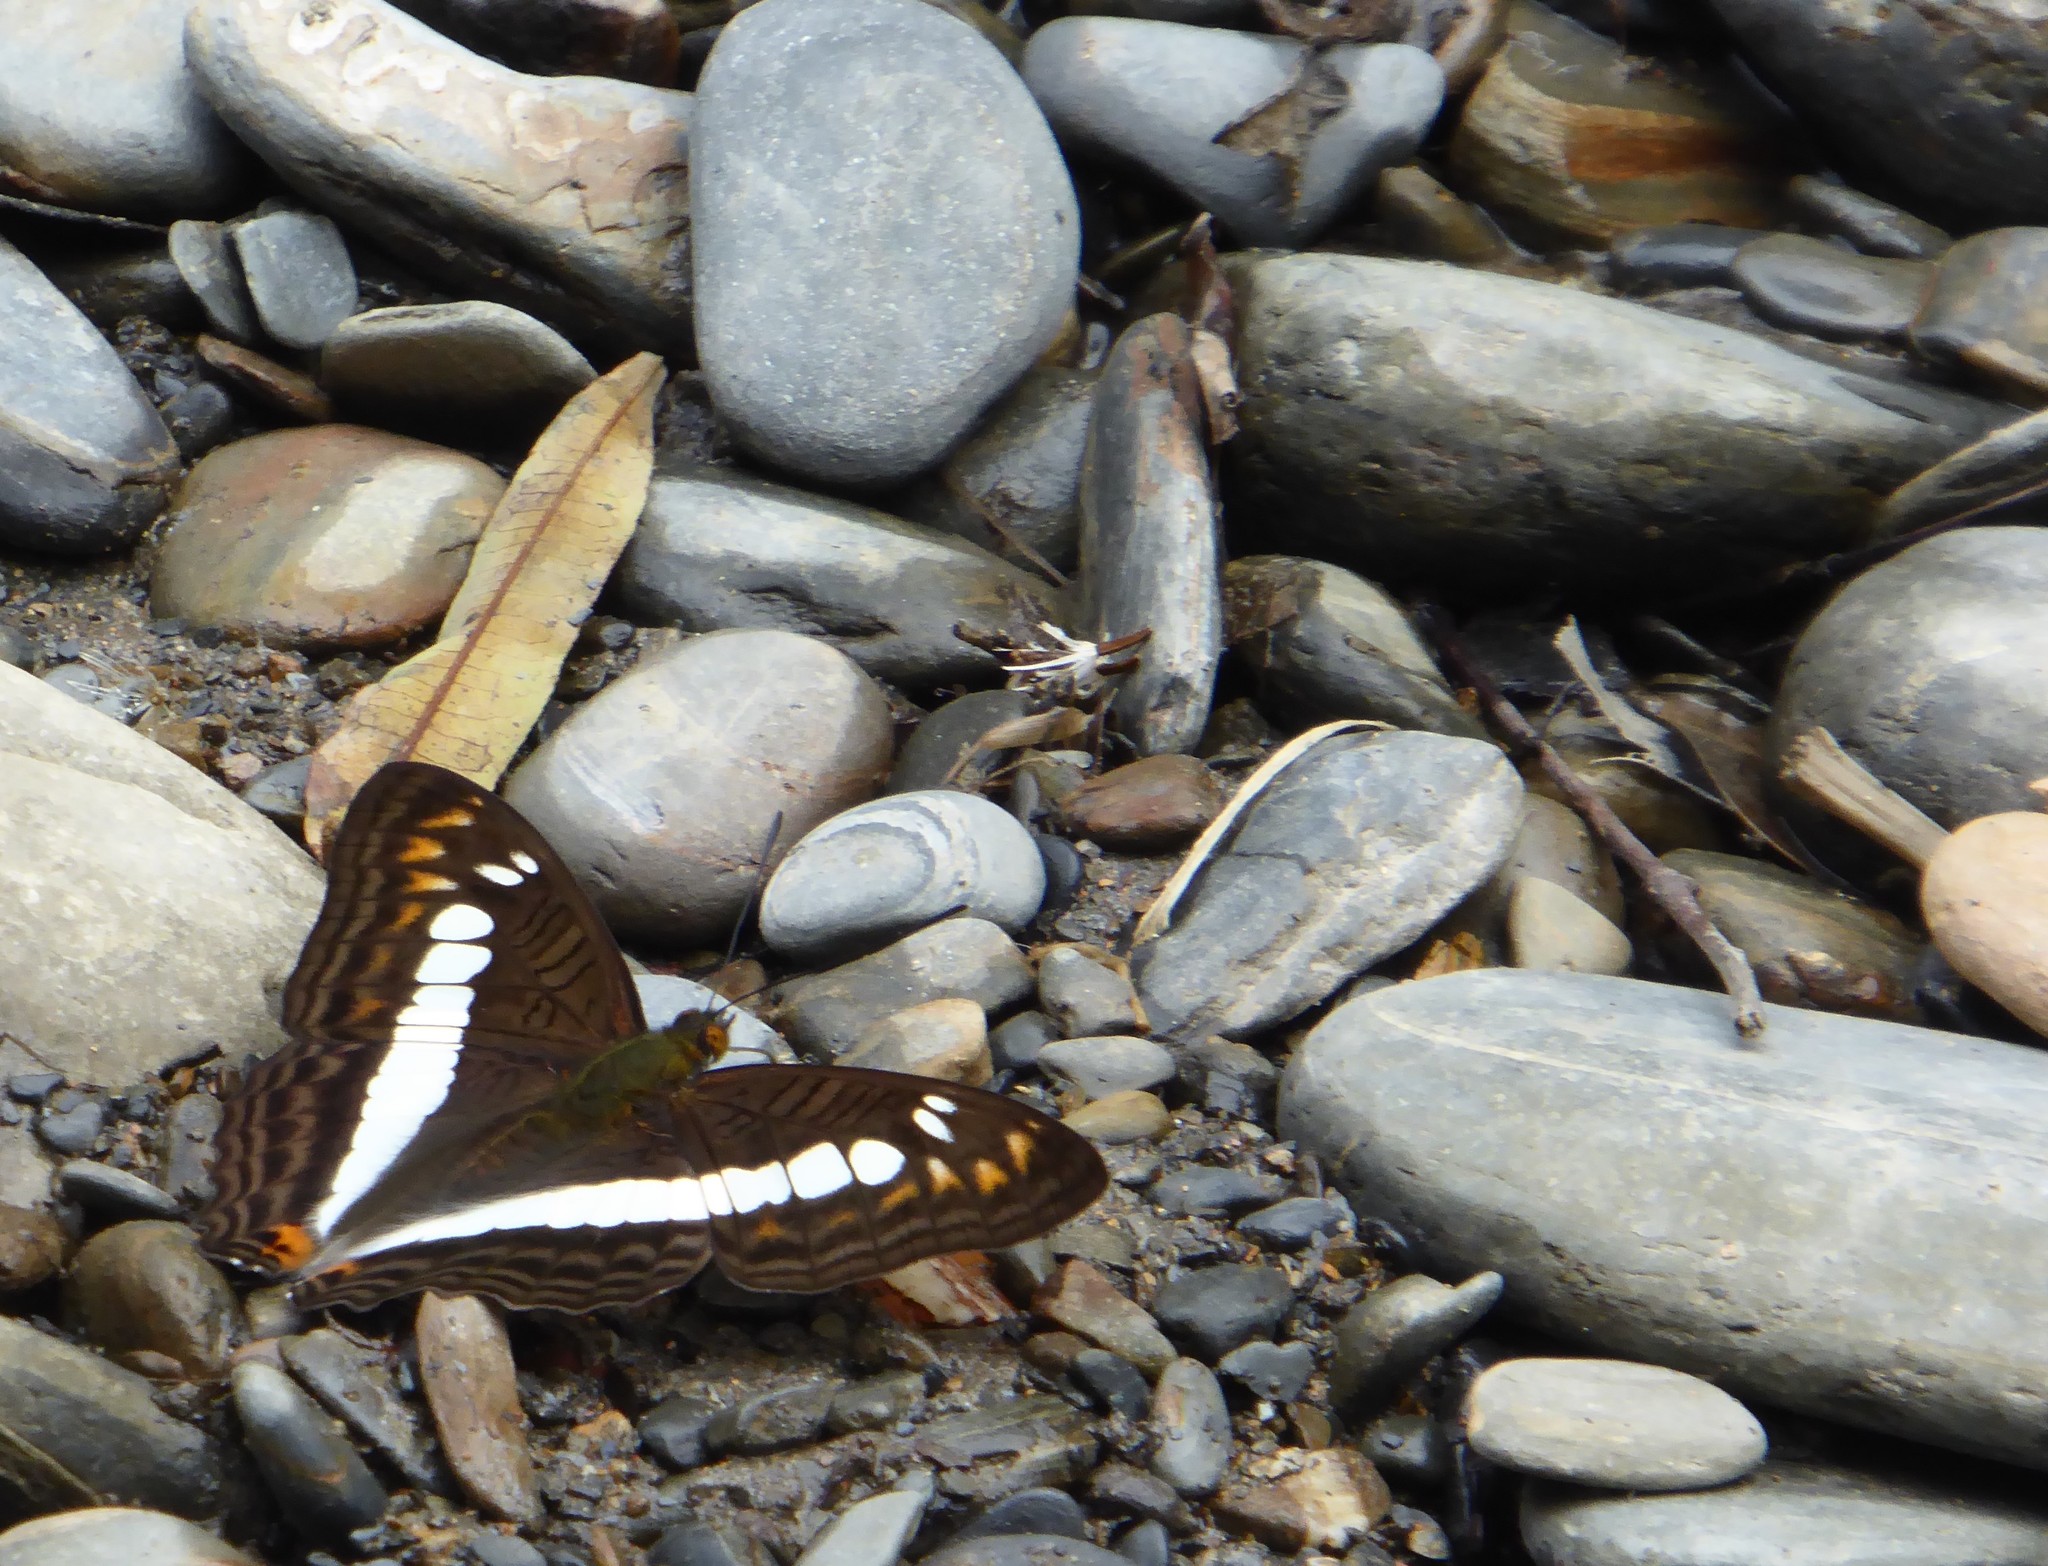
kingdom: Animalia
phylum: Arthropoda
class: Insecta
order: Lepidoptera
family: Nymphalidae
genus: Limenitis
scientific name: Limenitis alala
